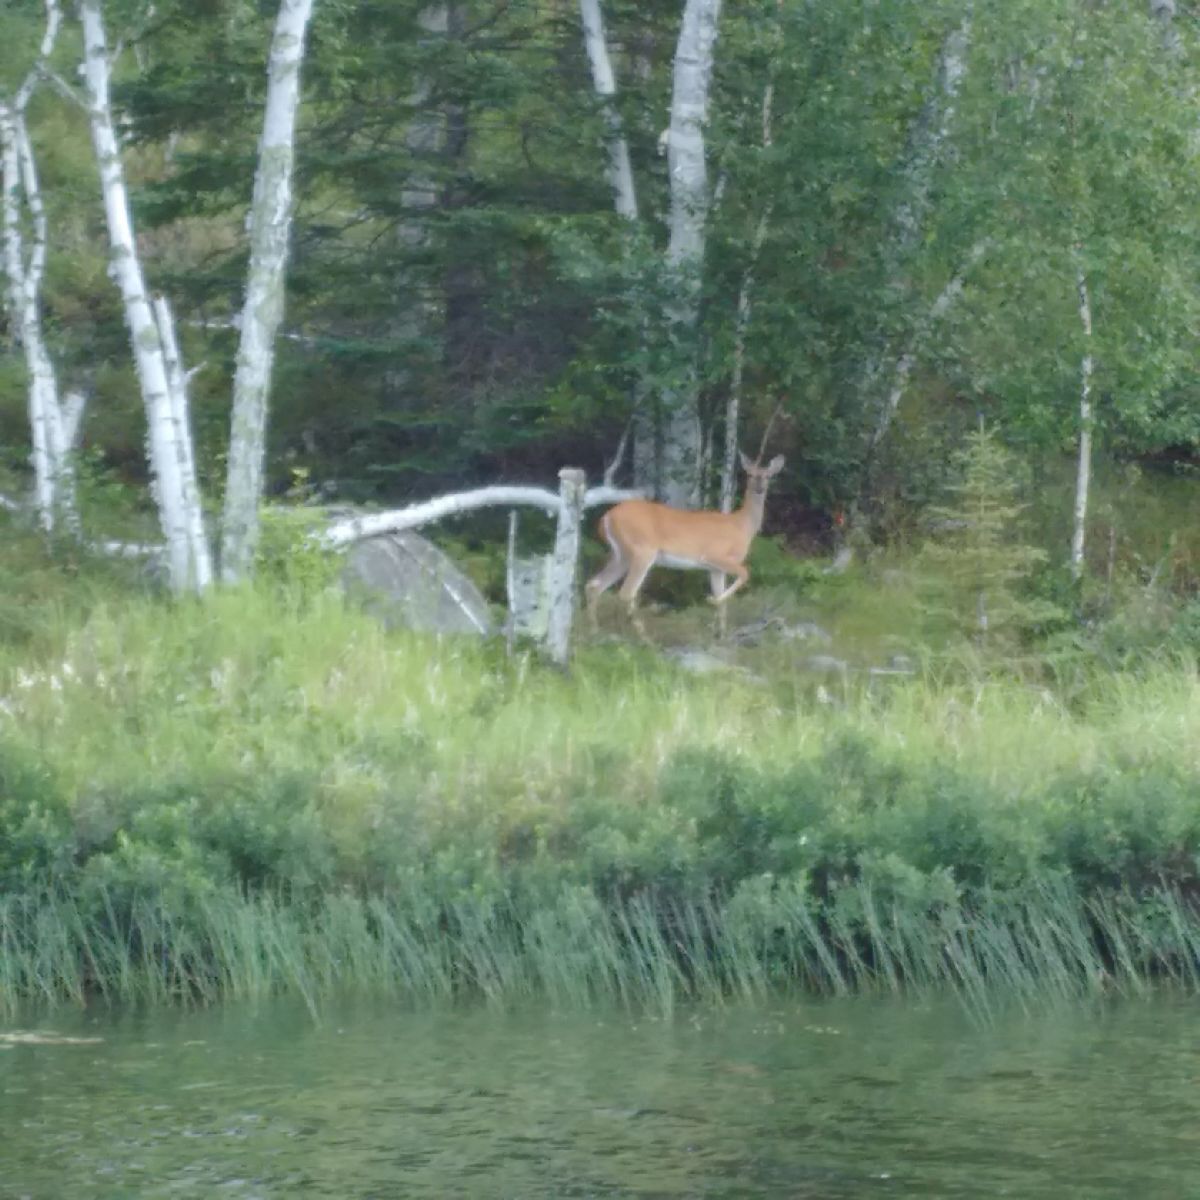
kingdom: Animalia
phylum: Chordata
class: Mammalia
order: Artiodactyla
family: Cervidae
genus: Odocoileus
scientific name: Odocoileus virginianus
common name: White-tailed deer
